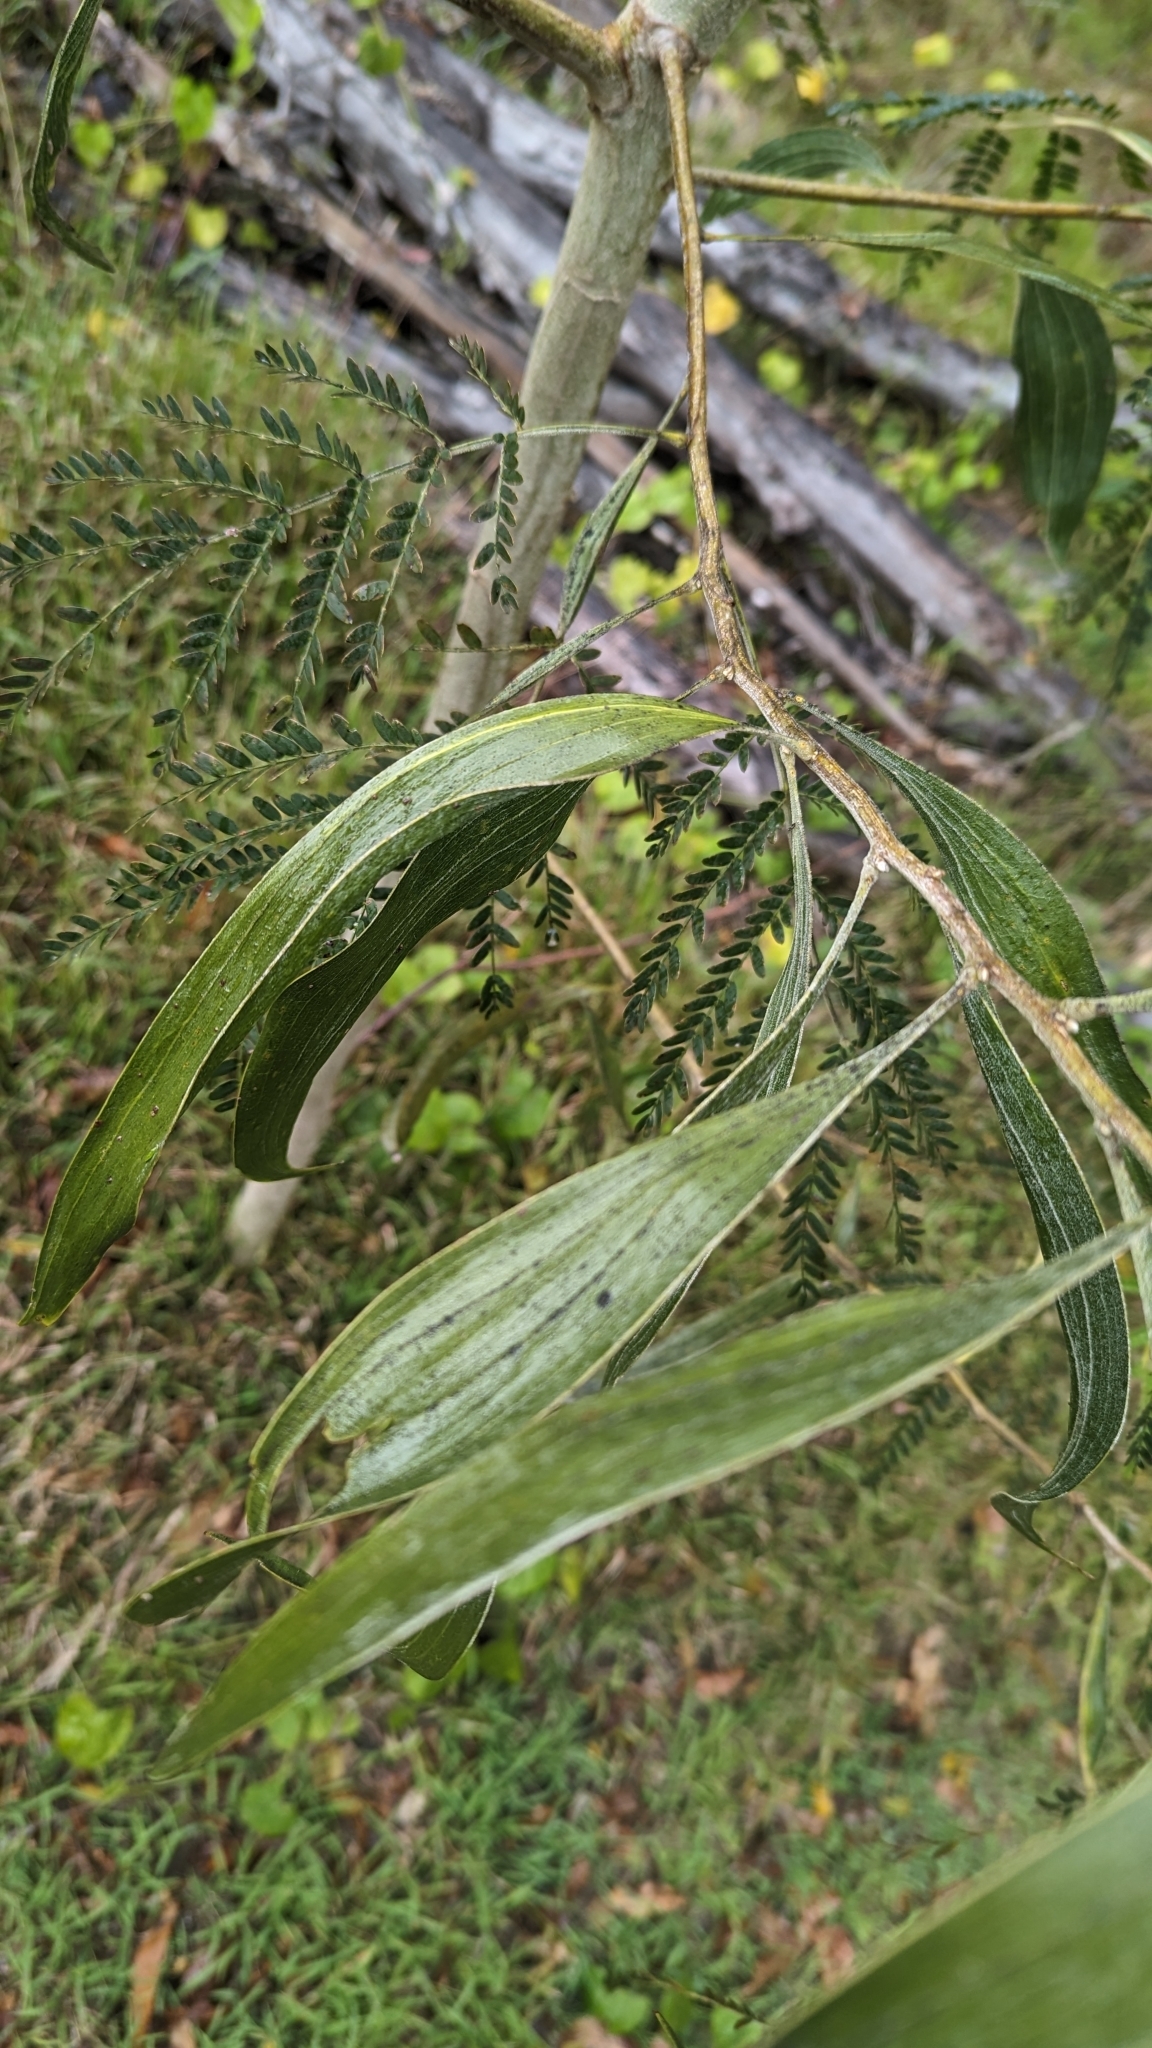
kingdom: Plantae
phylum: Tracheophyta
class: Magnoliopsida
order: Fabales
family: Fabaceae
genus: Acacia
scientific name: Acacia melanoxylon
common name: Blackwood
